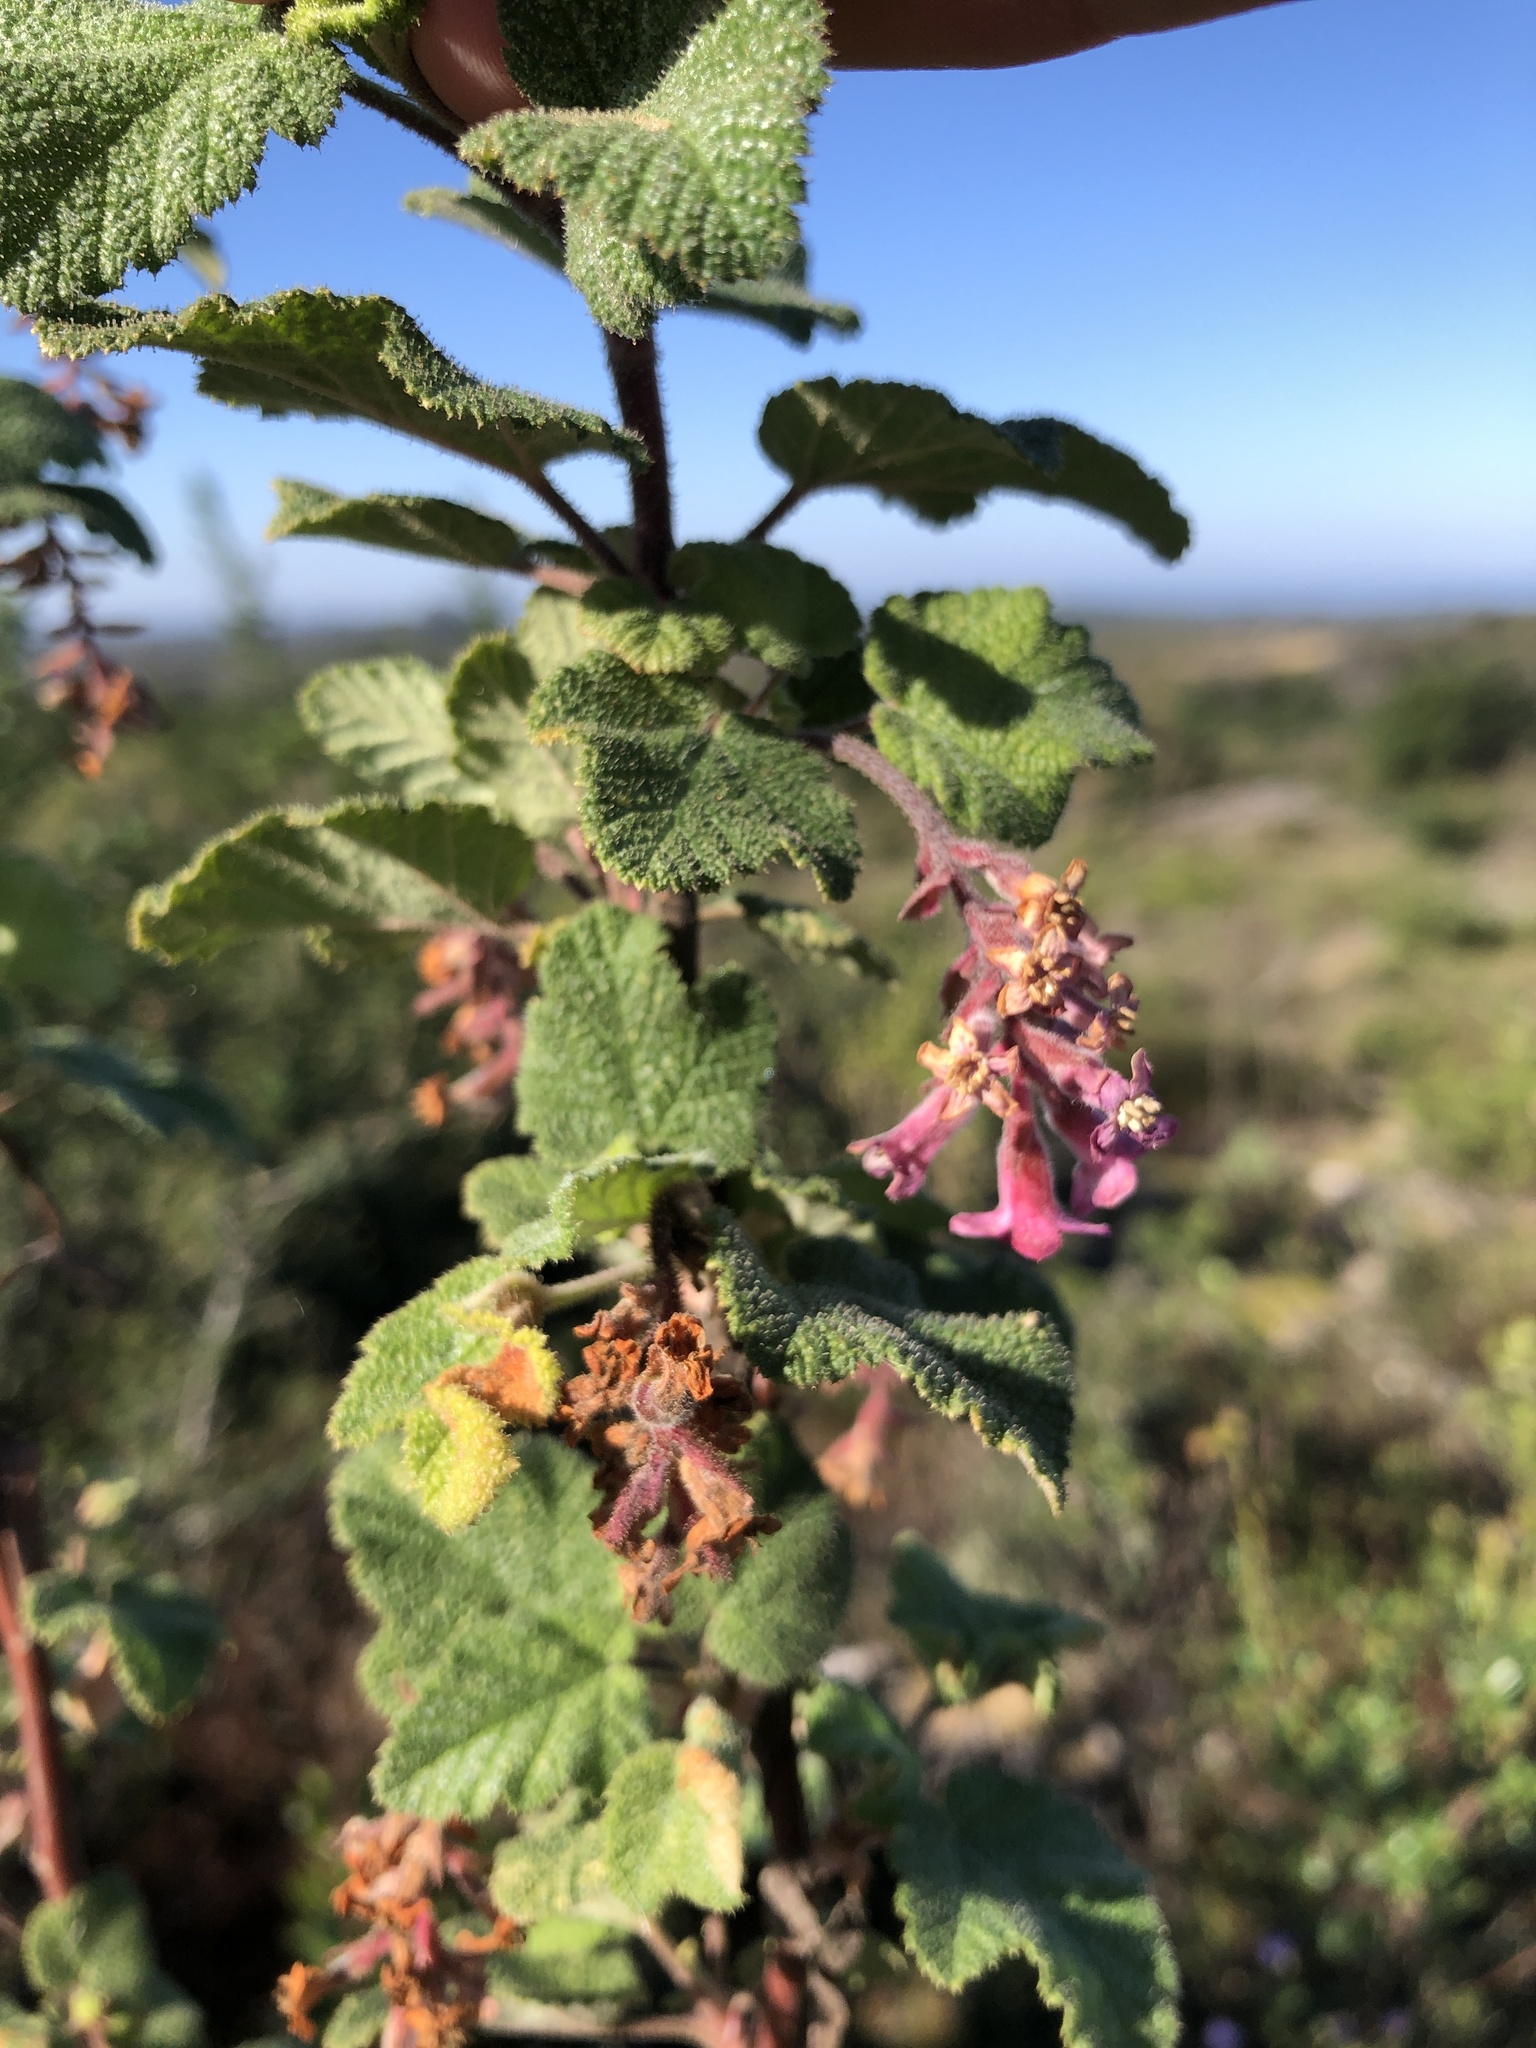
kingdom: Plantae
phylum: Tracheophyta
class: Magnoliopsida
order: Saxifragales
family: Grossulariaceae
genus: Ribes
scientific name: Ribes malvaceum
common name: Chaparral currant
